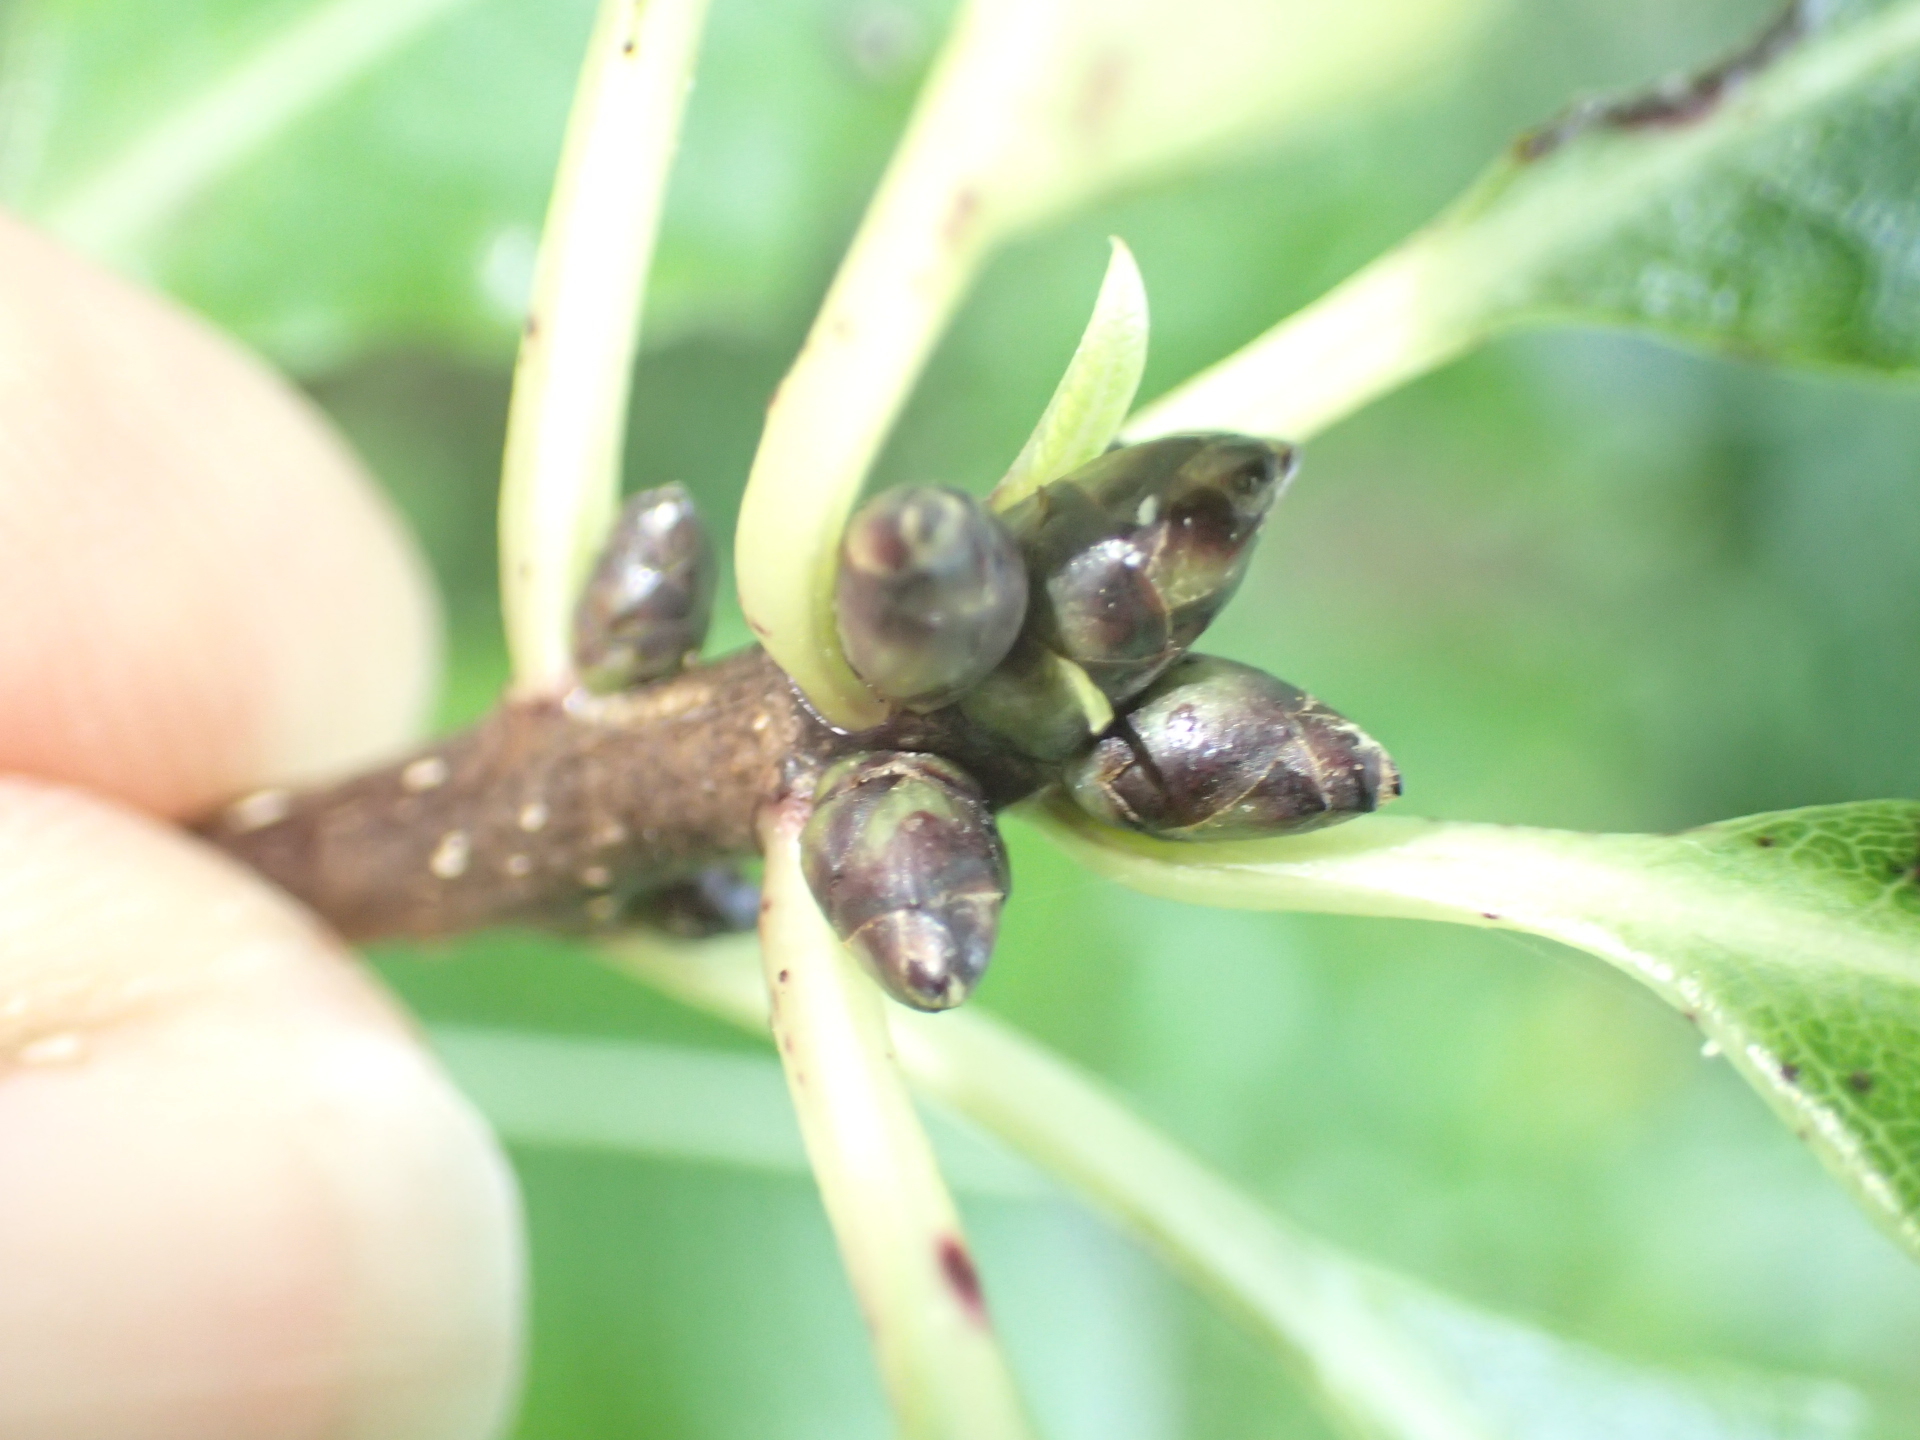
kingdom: Plantae
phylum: Tracheophyta
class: Magnoliopsida
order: Apiales
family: Pittosporaceae
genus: Pittosporum
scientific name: Pittosporum eugenioides
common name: Lemonwood
